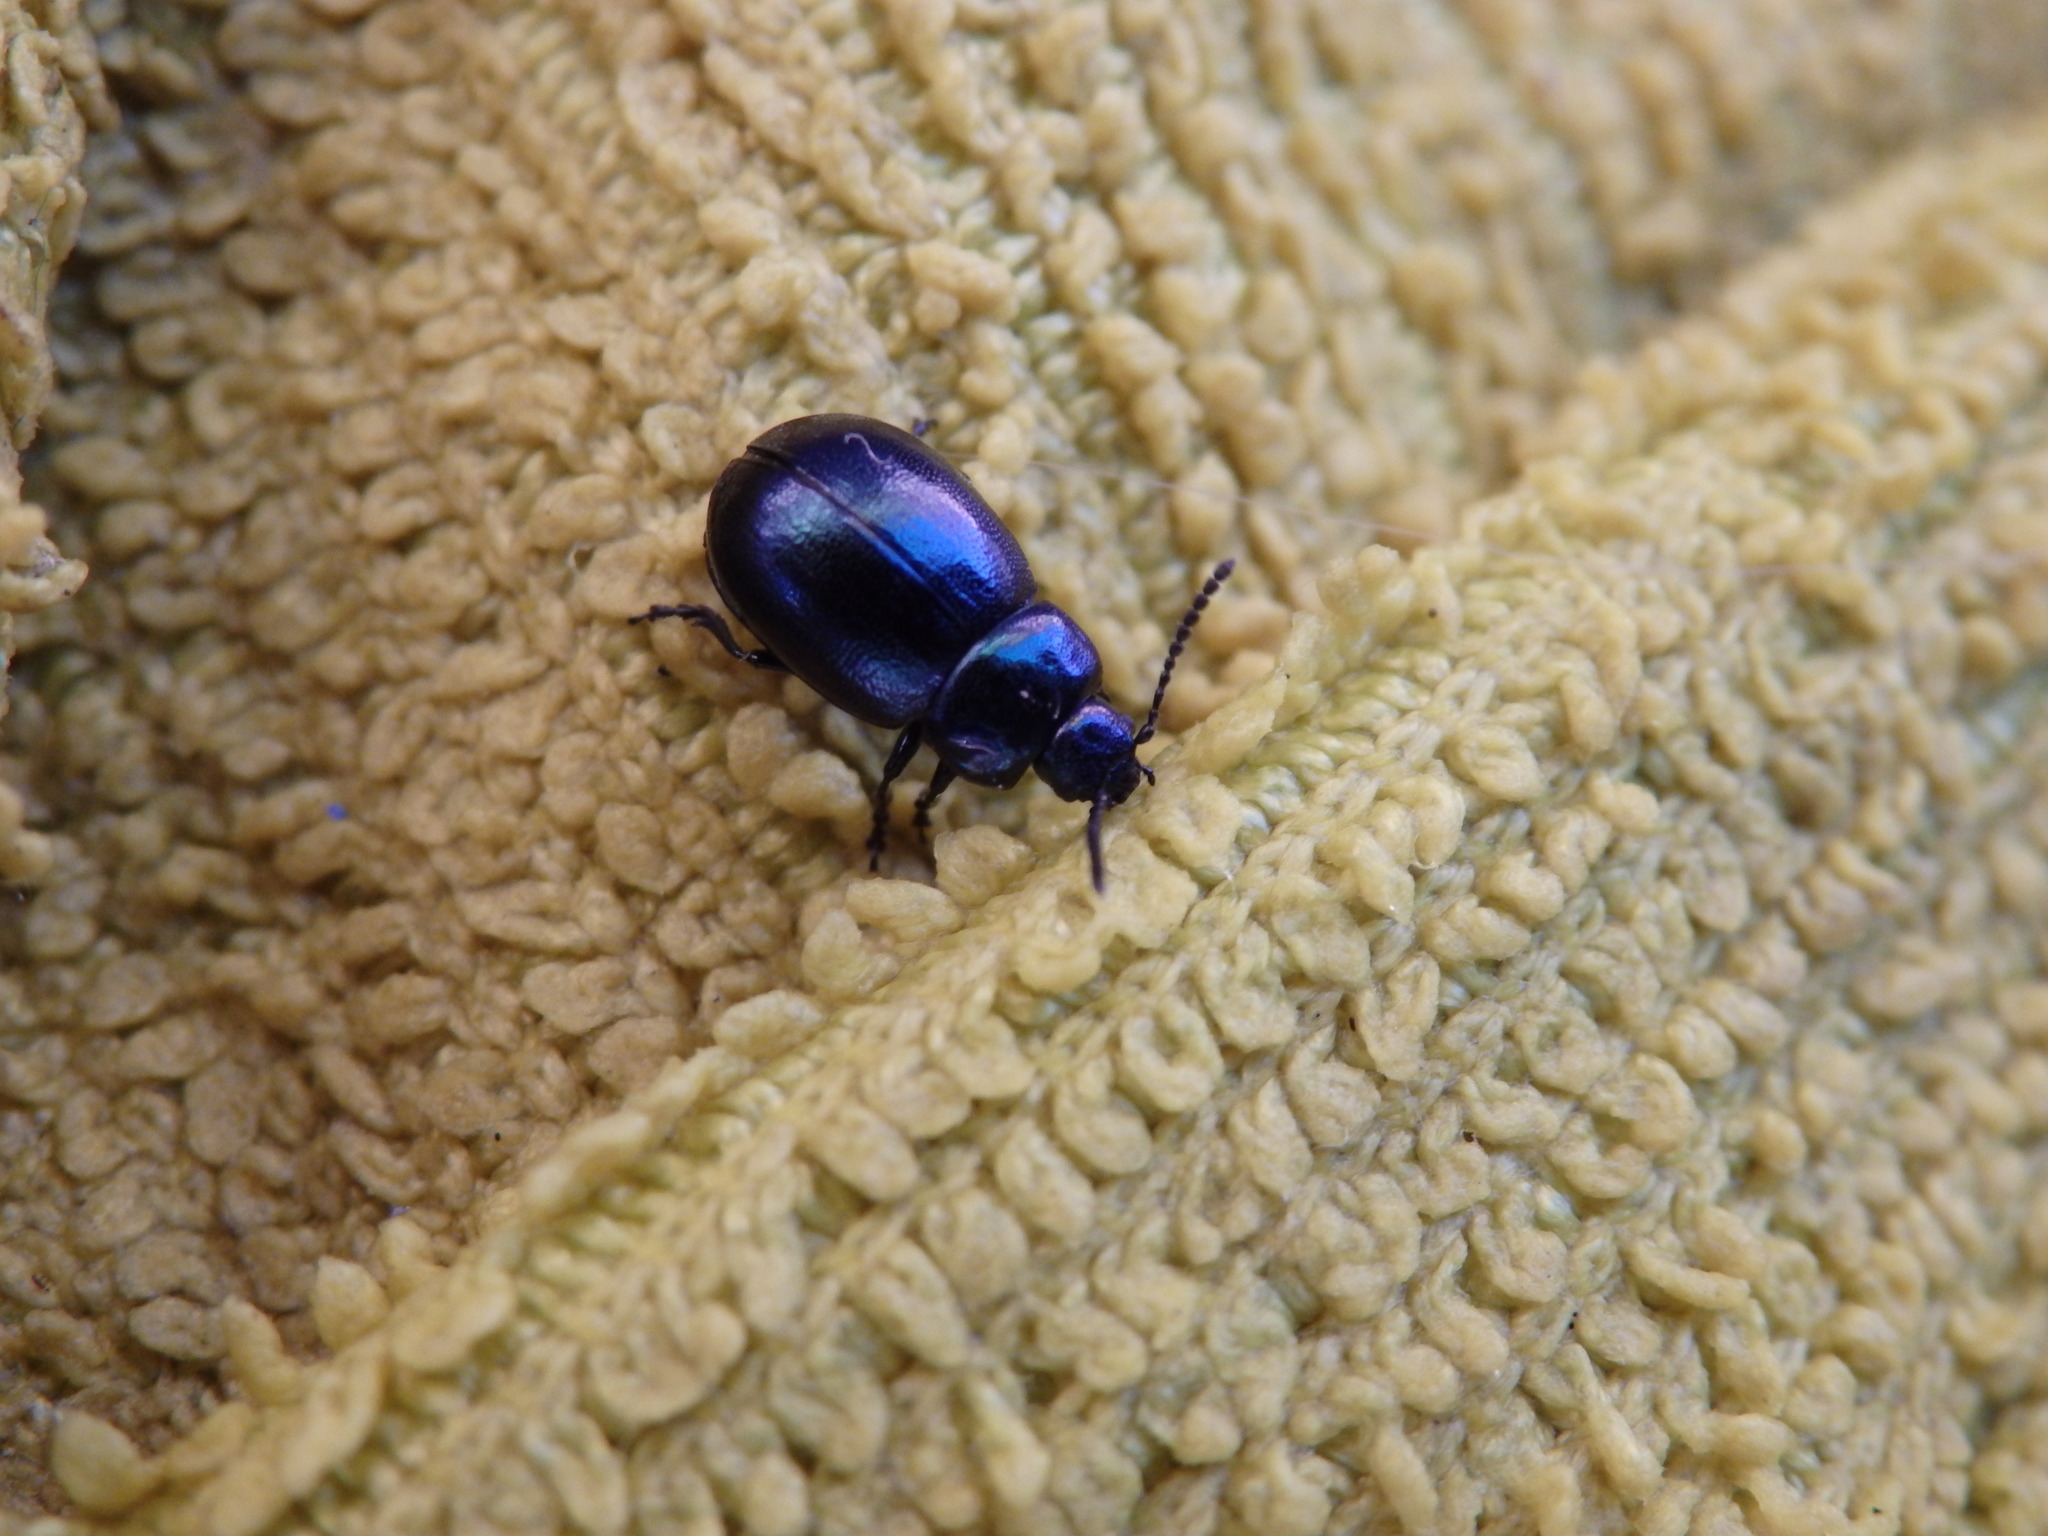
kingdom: Animalia
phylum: Arthropoda
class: Insecta
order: Coleoptera
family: Chrysomelidae
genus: Gastrophysa
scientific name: Gastrophysa janthina
